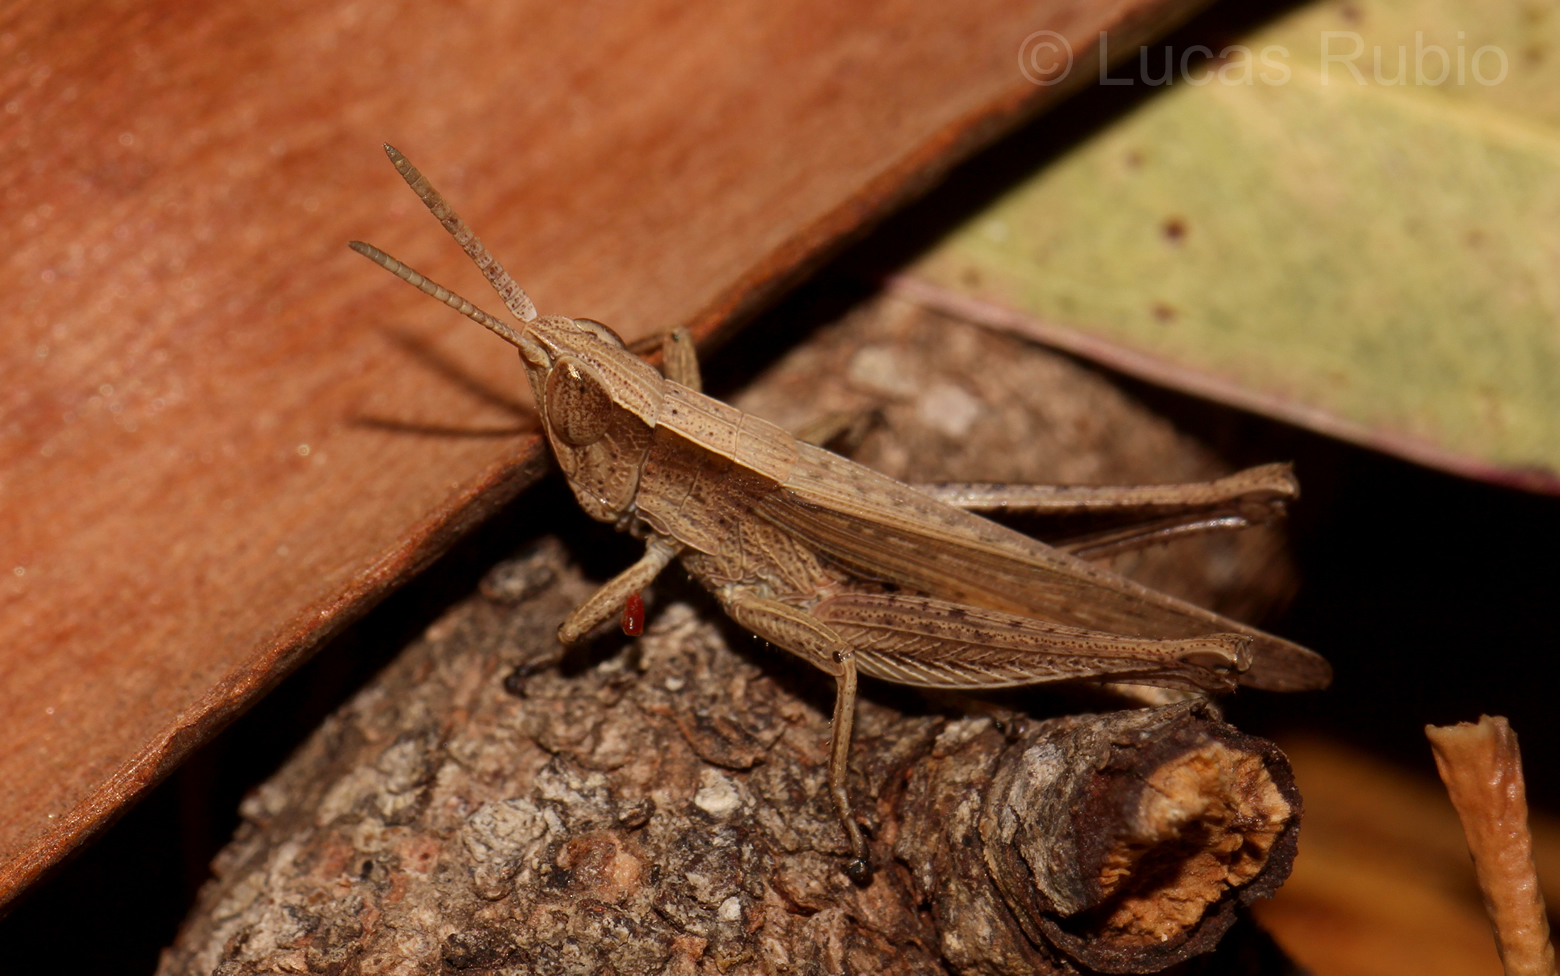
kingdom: Animalia
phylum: Arthropoda
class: Insecta
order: Orthoptera
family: Acrididae
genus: Laplatacris
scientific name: Laplatacris dispar
